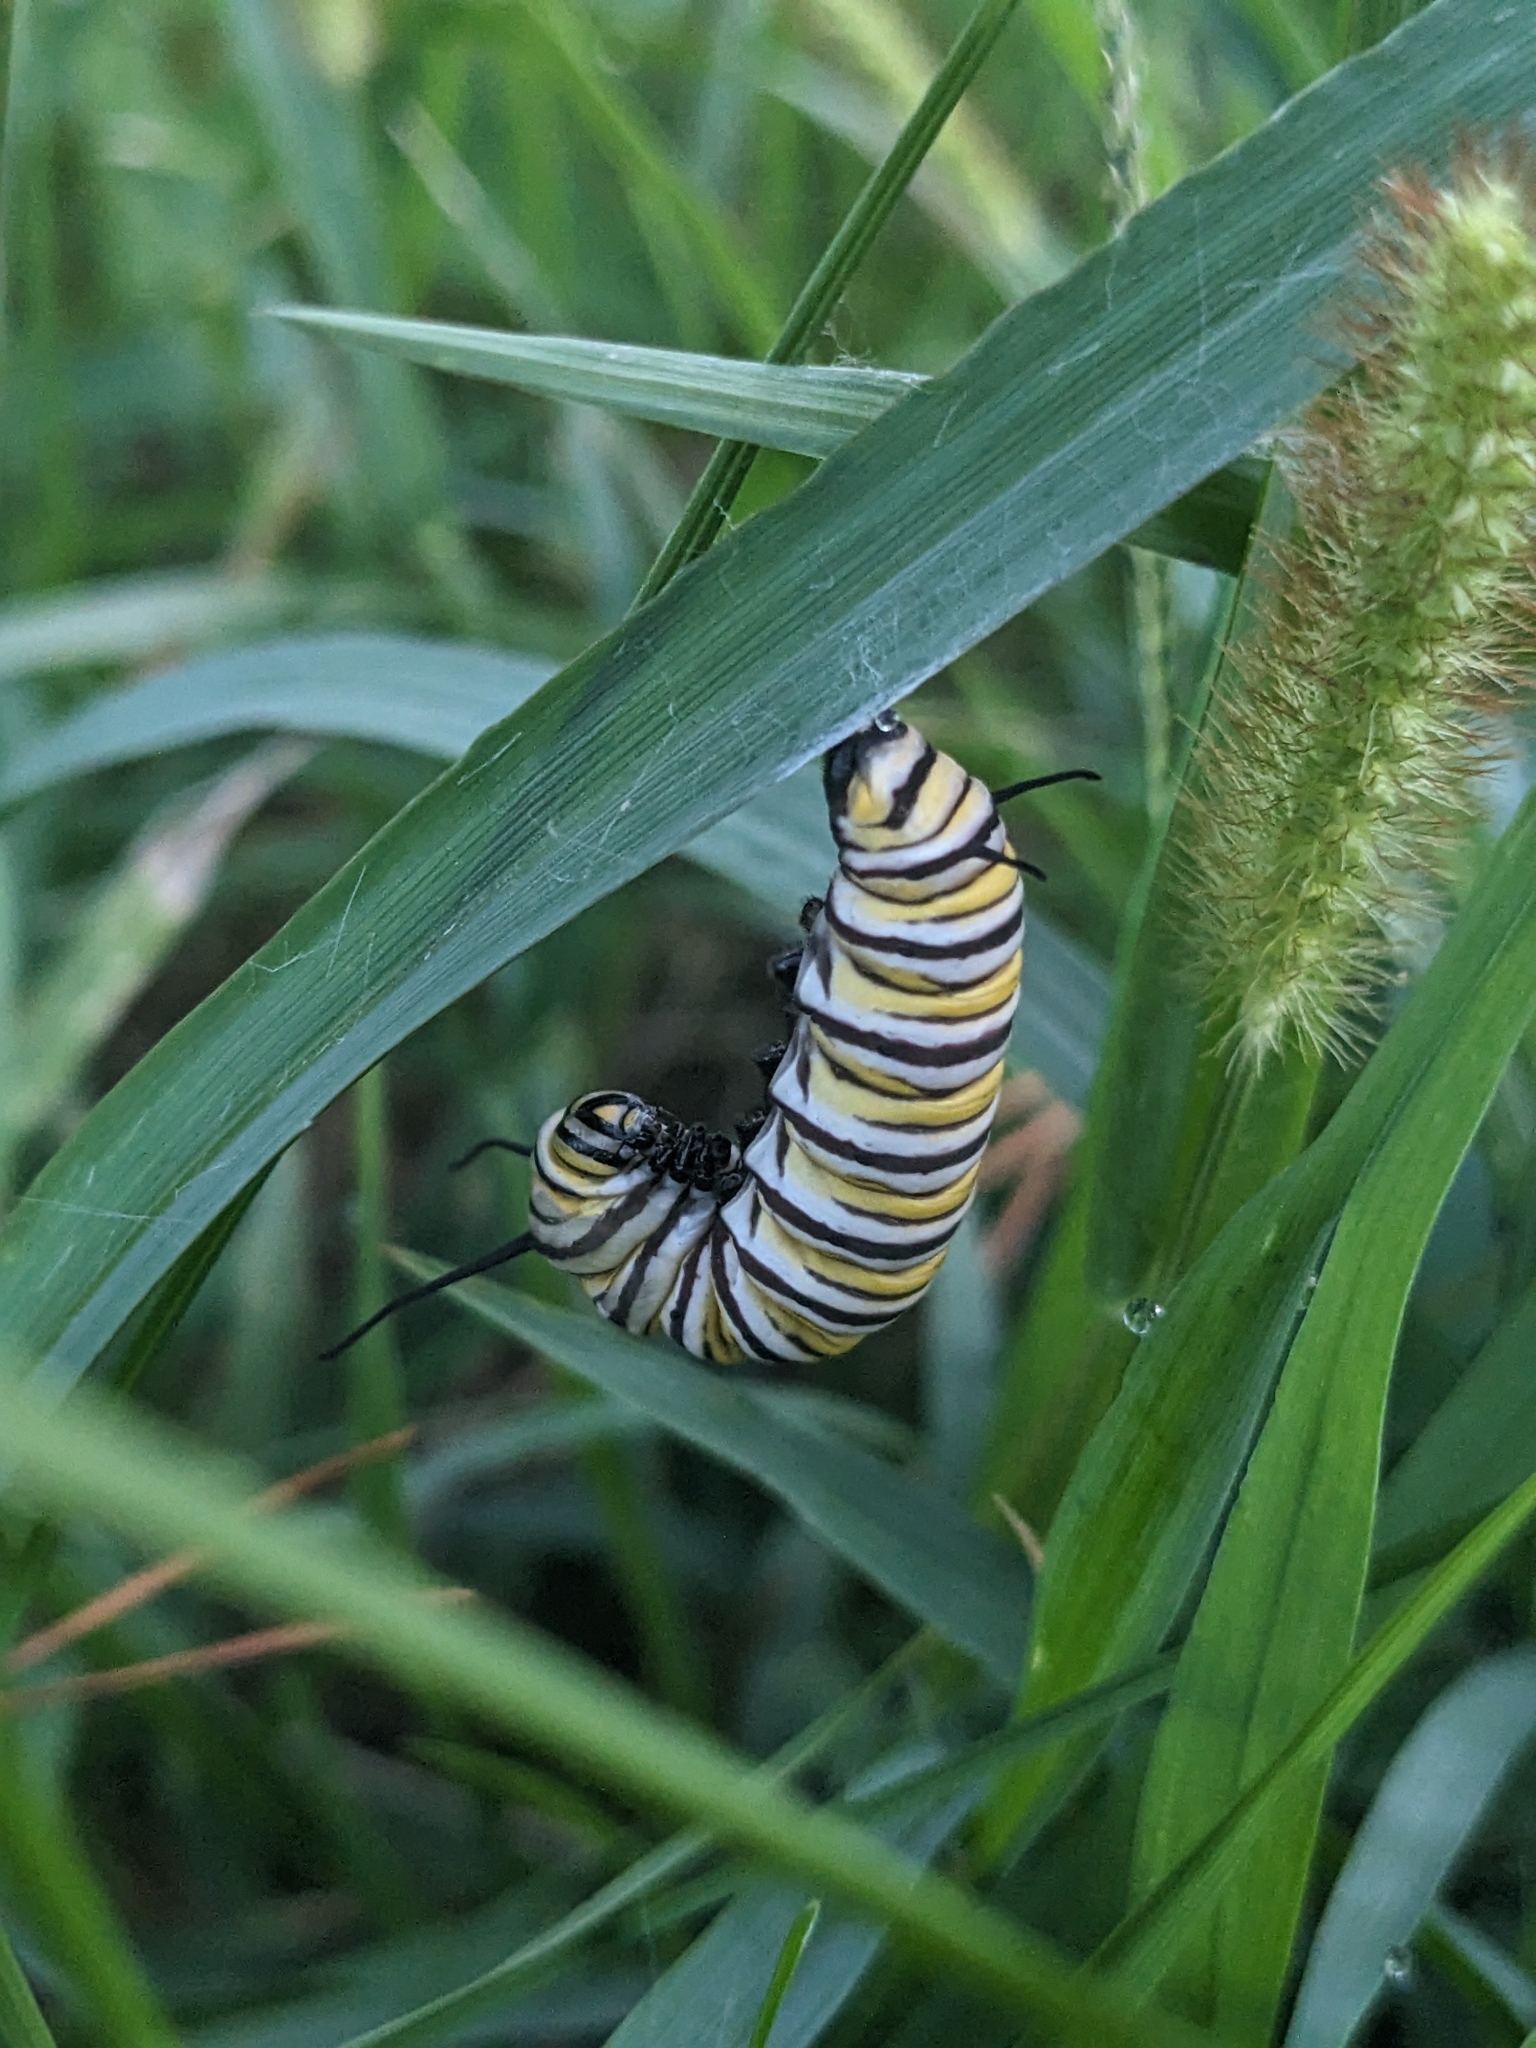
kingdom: Animalia
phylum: Arthropoda
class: Insecta
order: Lepidoptera
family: Nymphalidae
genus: Danaus
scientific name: Danaus plexippus
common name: Monarch
